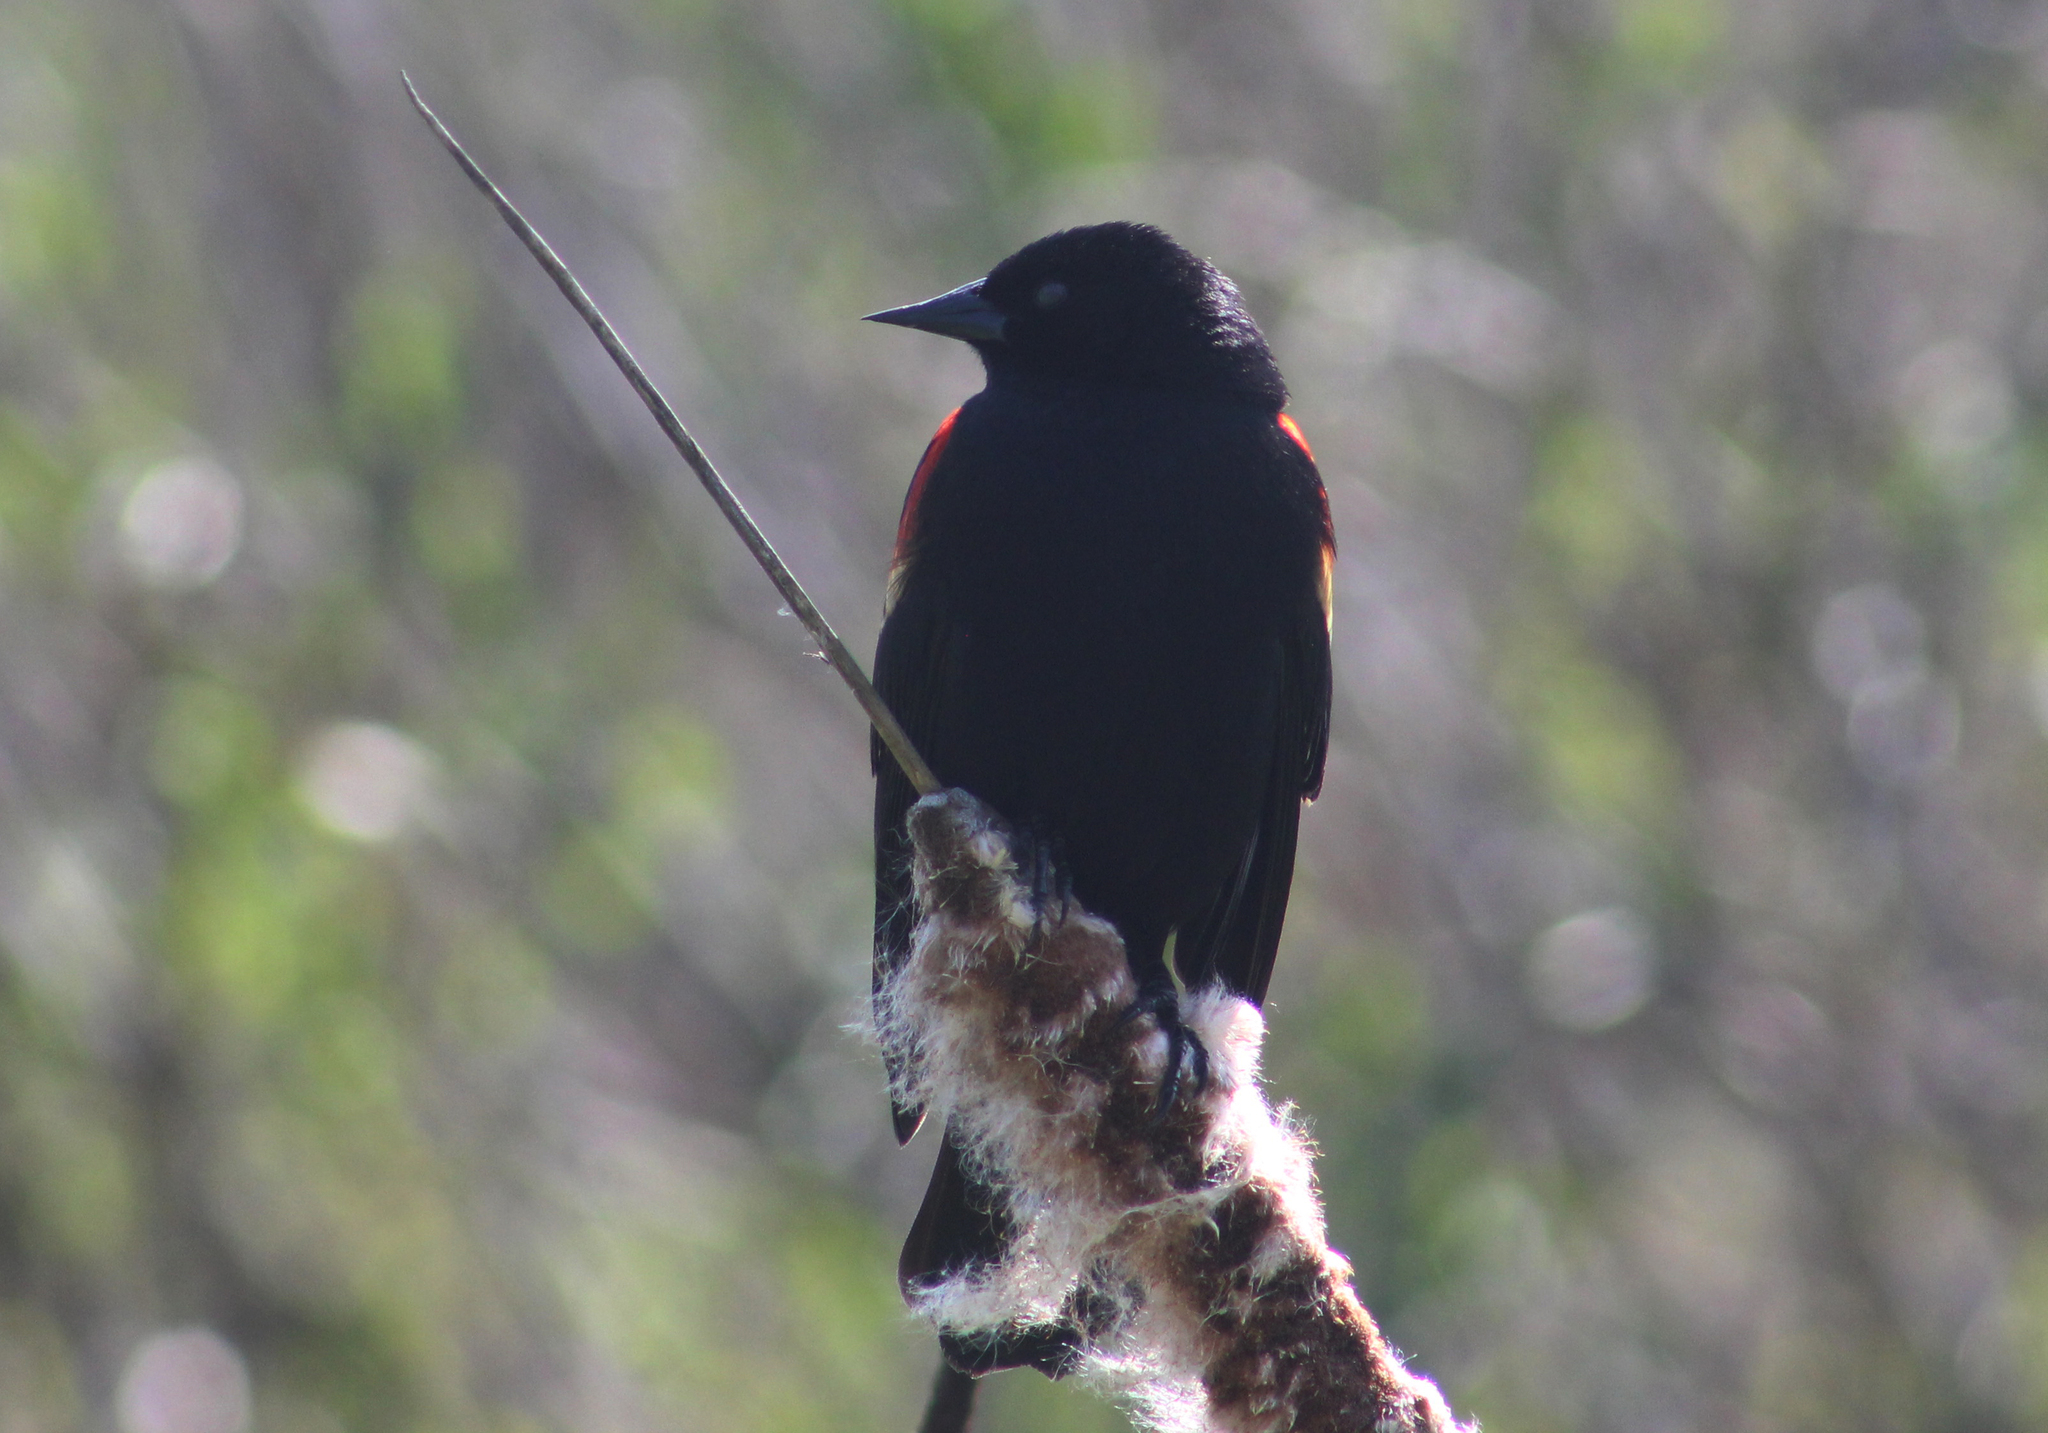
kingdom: Animalia
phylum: Chordata
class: Aves
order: Passeriformes
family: Icteridae
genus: Agelaius
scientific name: Agelaius phoeniceus
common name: Red-winged blackbird
